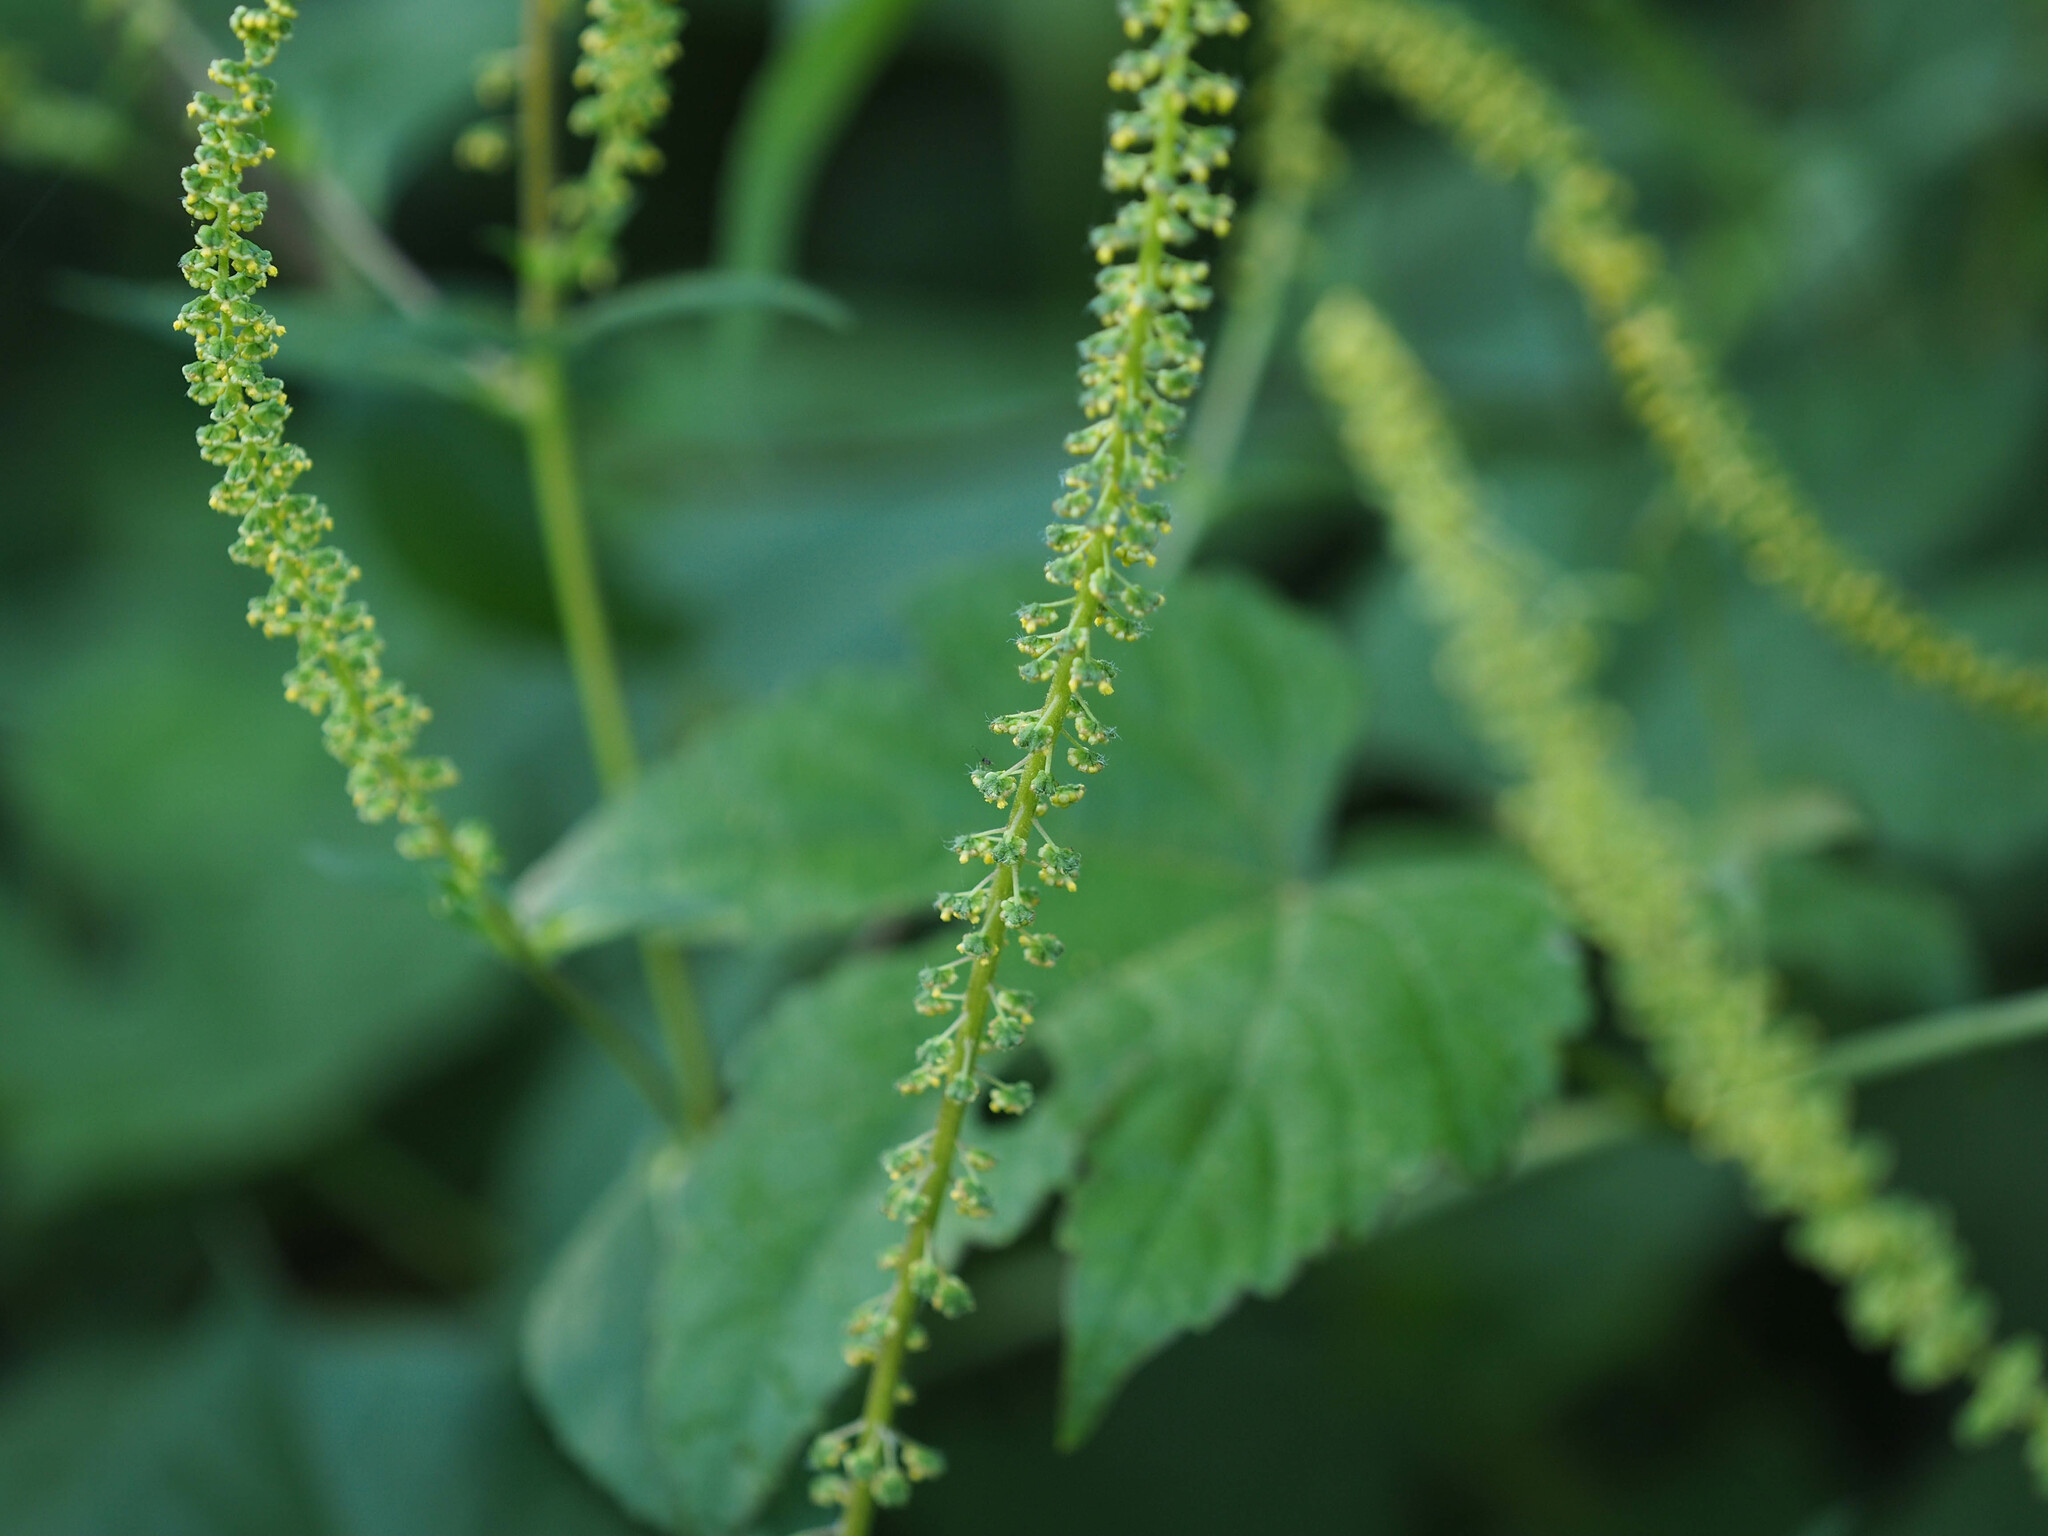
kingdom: Plantae
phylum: Tracheophyta
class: Magnoliopsida
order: Asterales
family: Asteraceae
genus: Ambrosia
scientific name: Ambrosia trifida
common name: Giant ragweed
